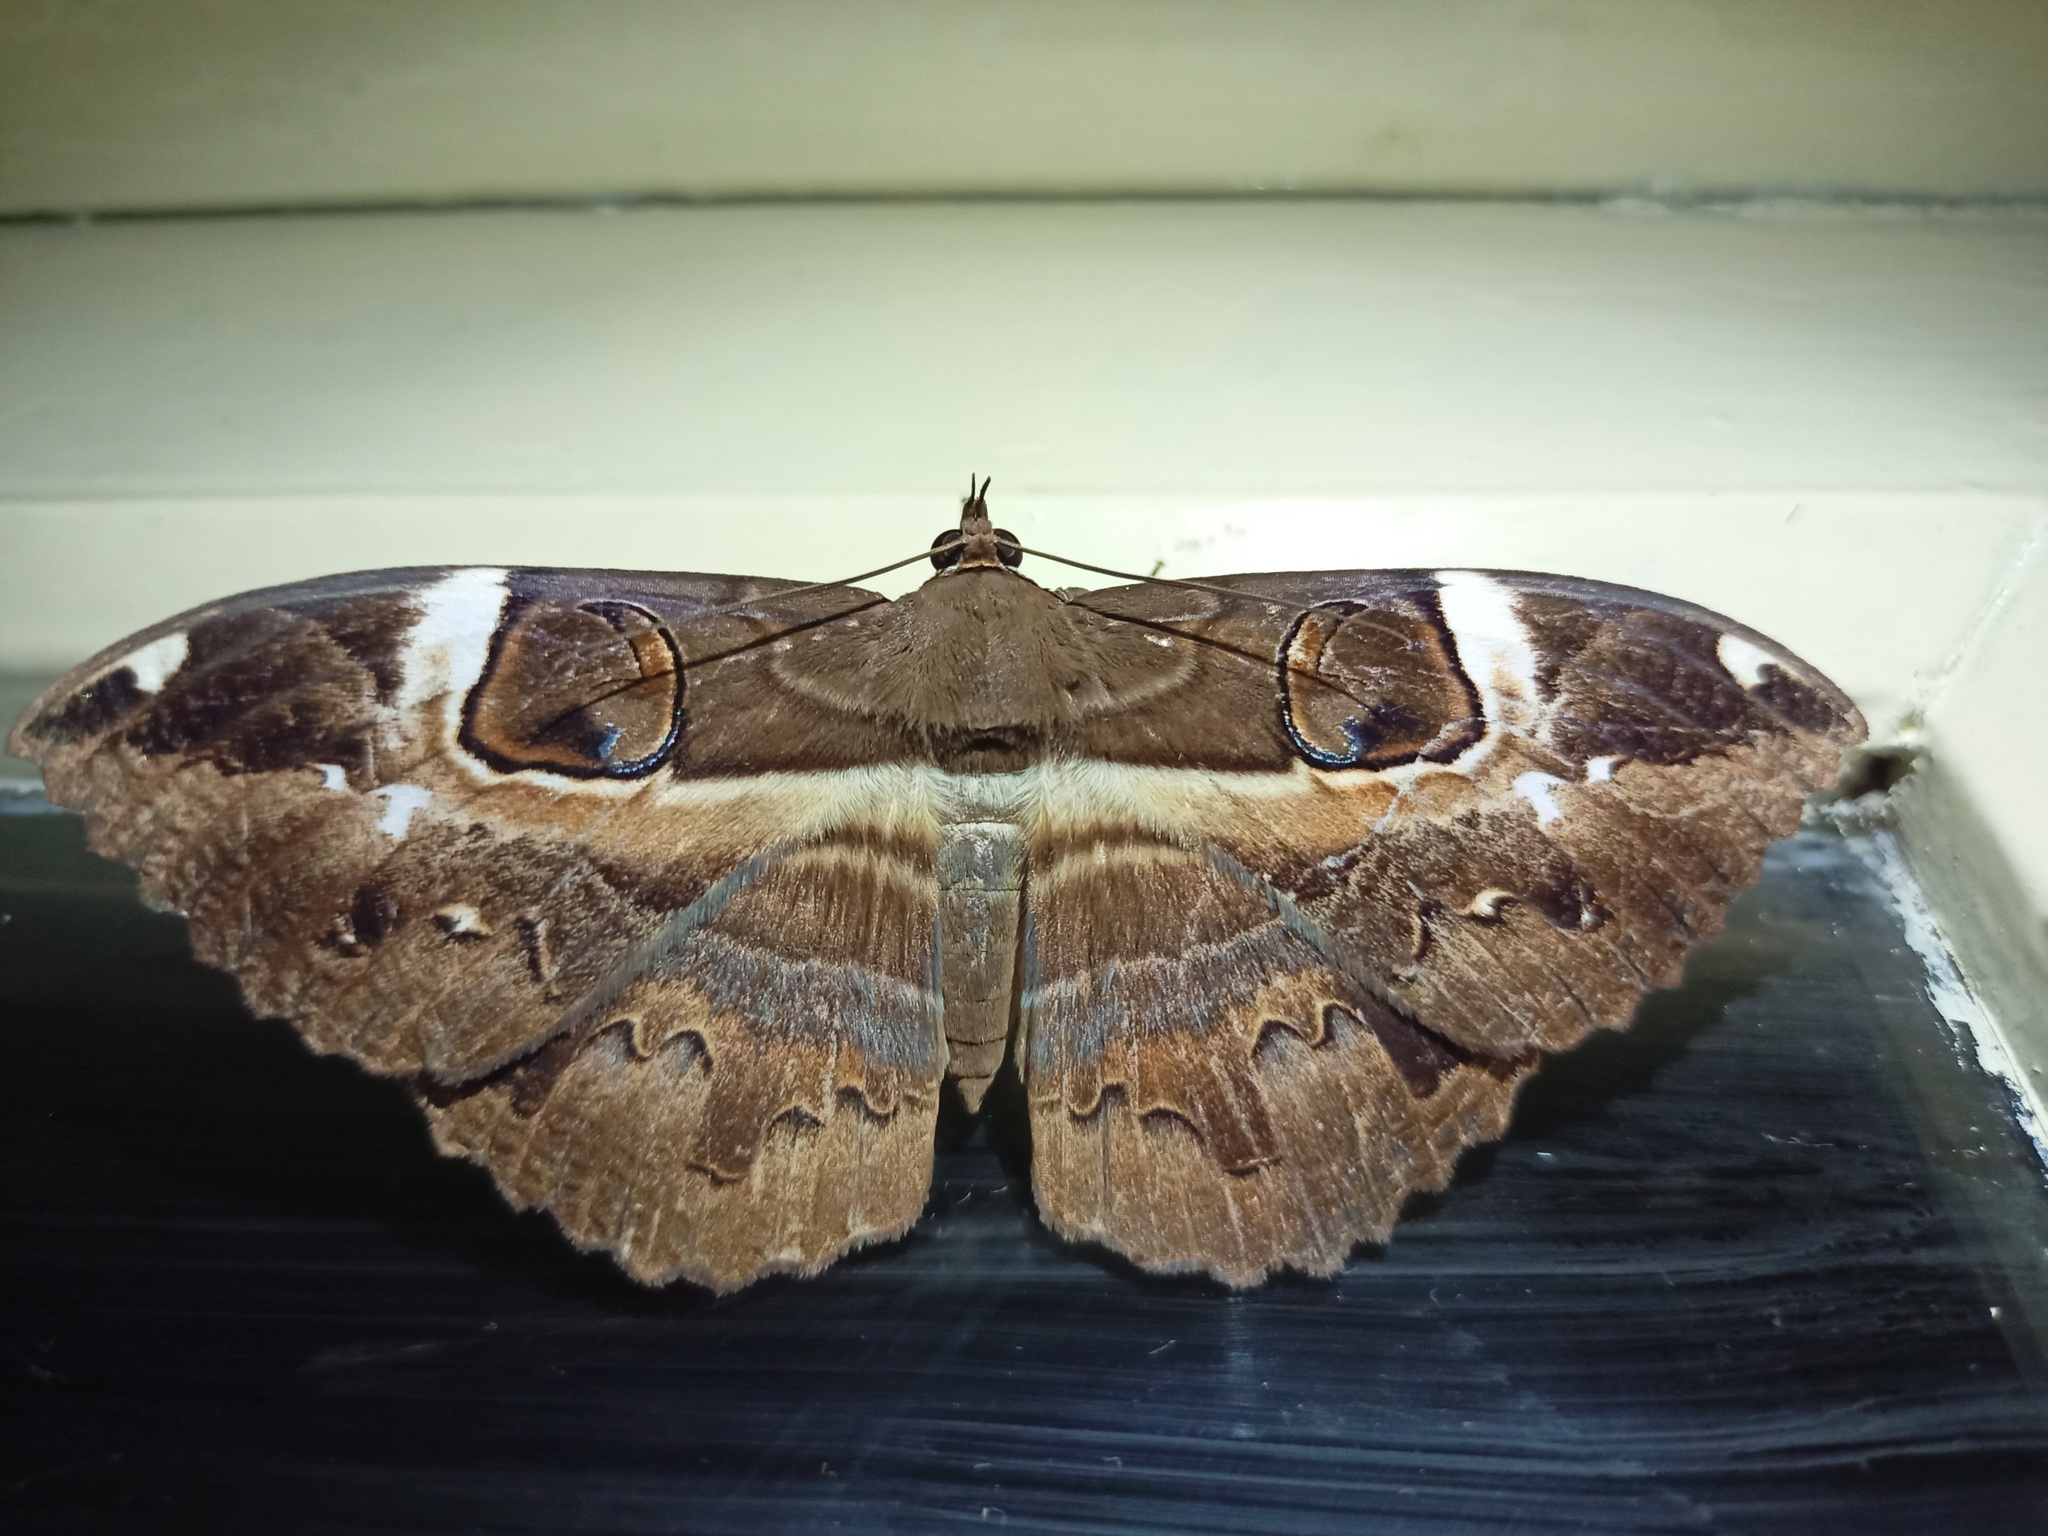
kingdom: Animalia
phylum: Arthropoda
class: Insecta
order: Lepidoptera
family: Erebidae
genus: Erebus
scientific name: Erebus ephesperis
